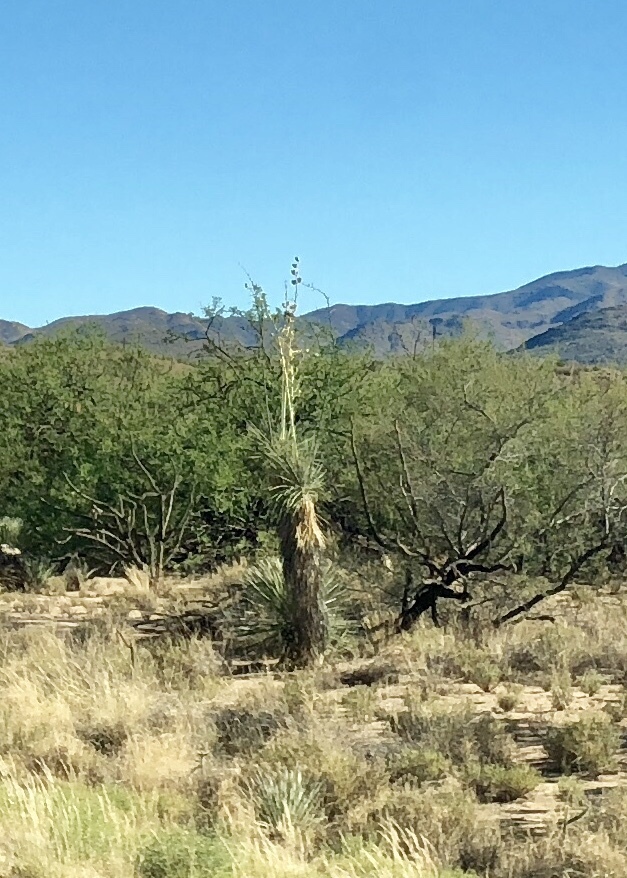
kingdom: Plantae
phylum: Tracheophyta
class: Liliopsida
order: Asparagales
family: Asparagaceae
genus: Yucca
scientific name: Yucca elata
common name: Palmella
